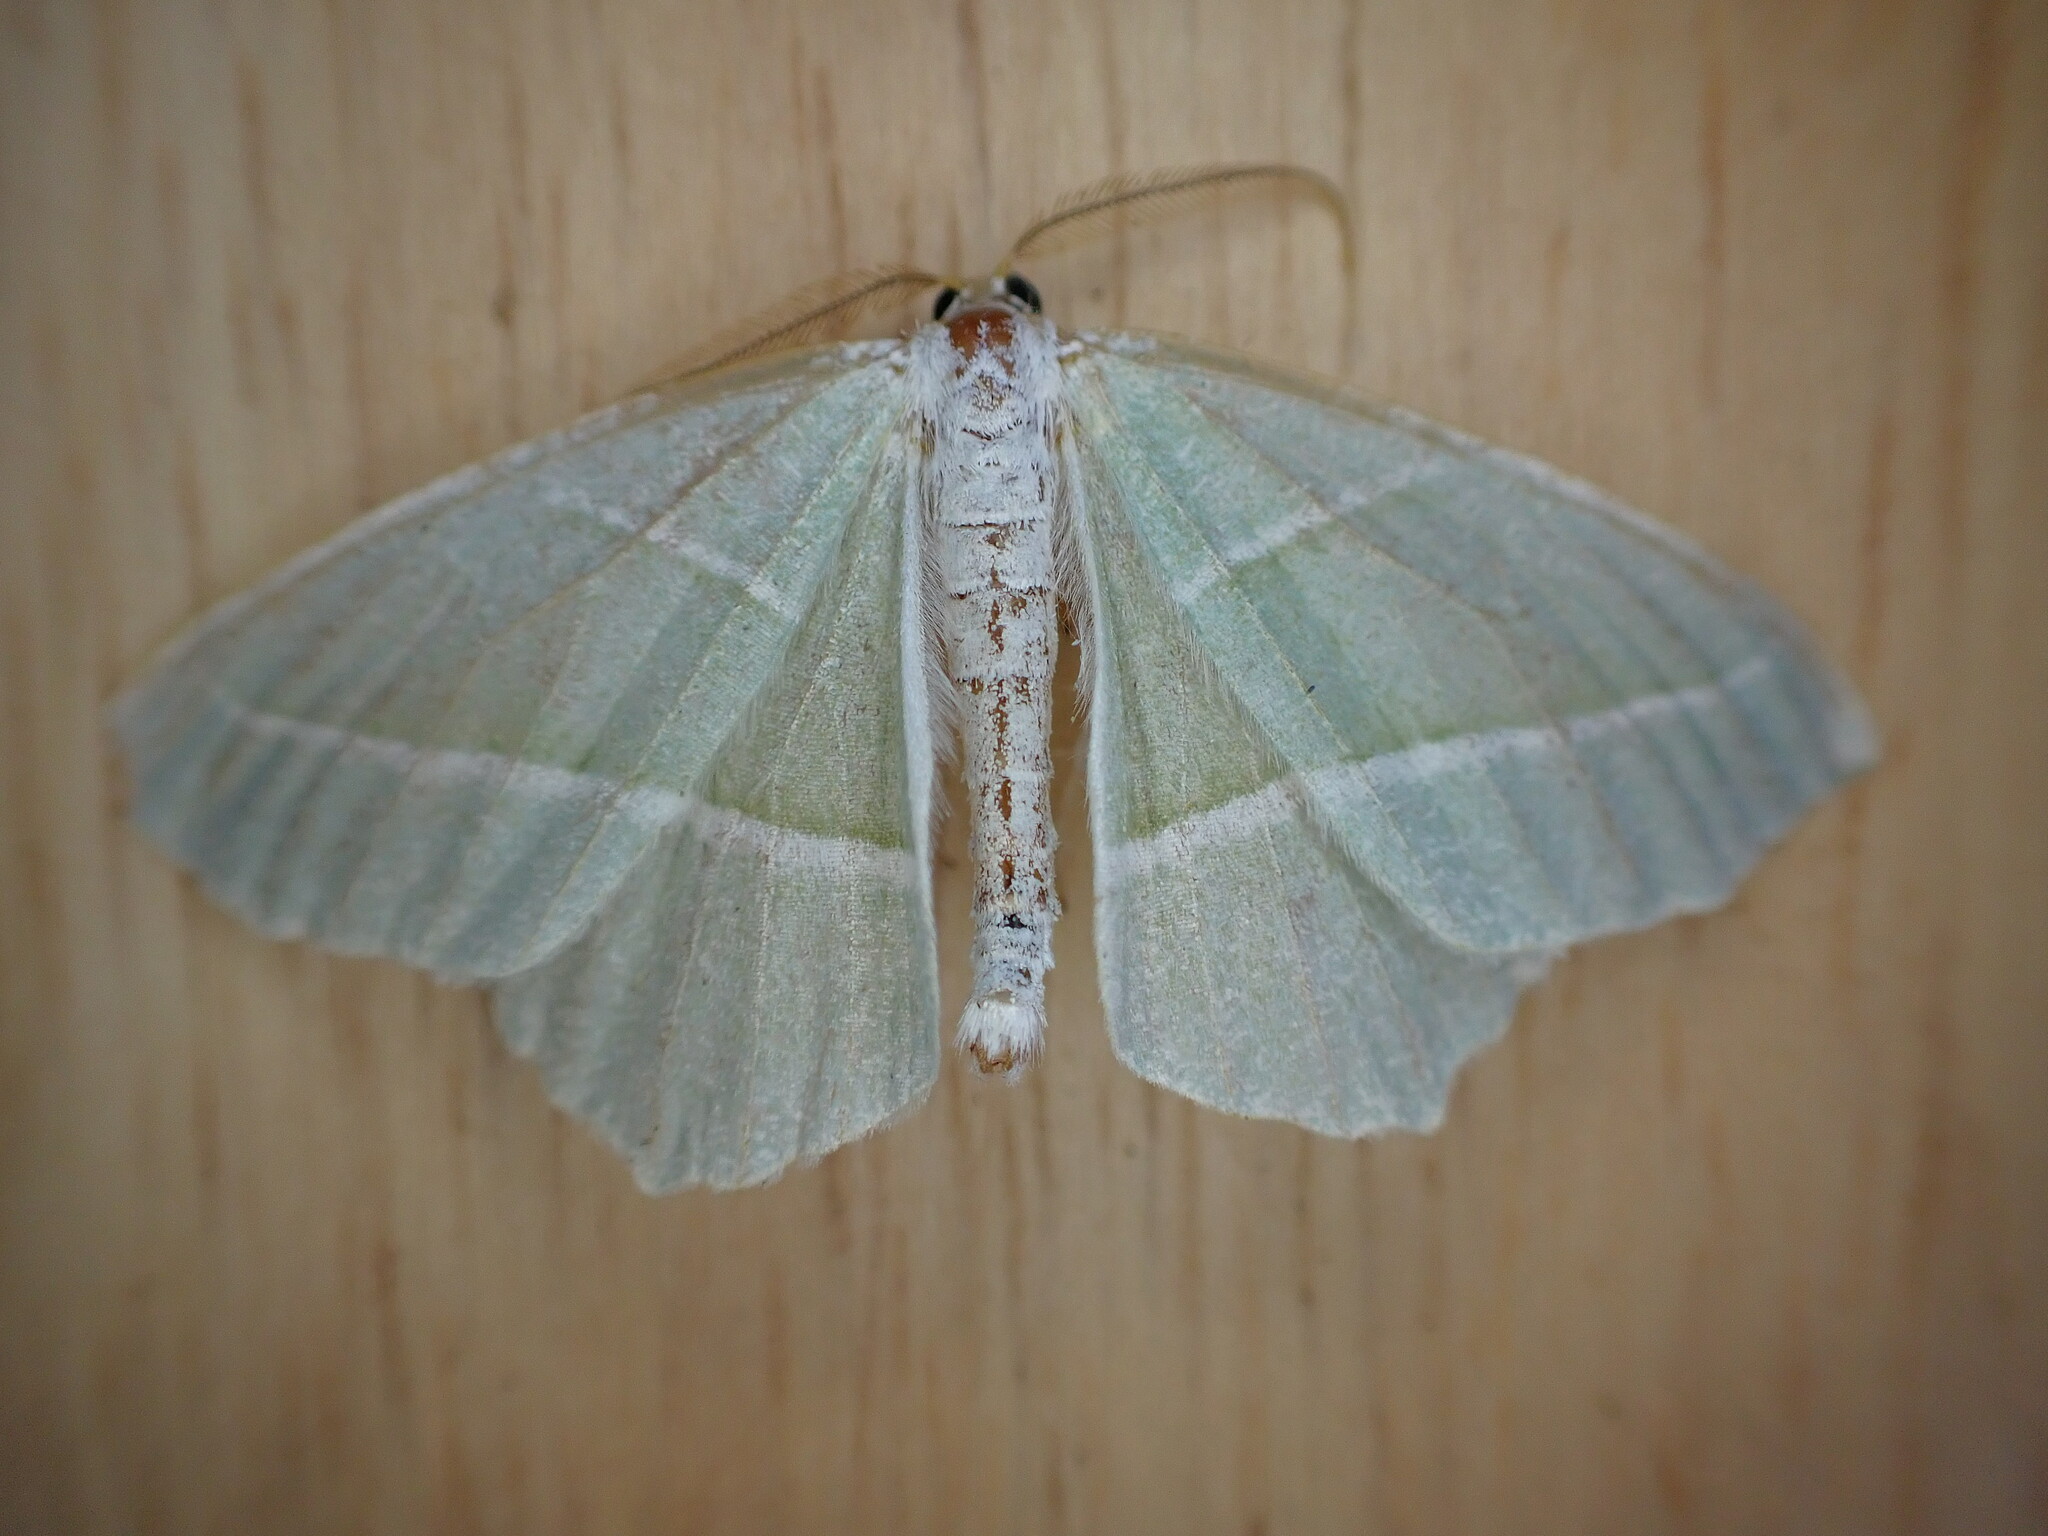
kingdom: Animalia
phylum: Arthropoda
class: Insecta
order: Lepidoptera
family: Geometridae
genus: Campaea
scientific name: Campaea margaritaria
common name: Light emerald
